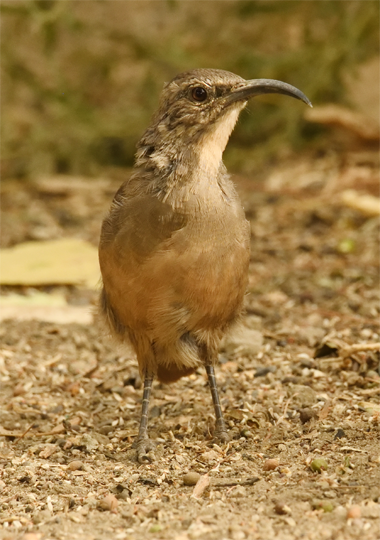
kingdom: Animalia
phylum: Chordata
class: Aves
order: Passeriformes
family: Mimidae
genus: Toxostoma
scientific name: Toxostoma redivivum
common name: California thrasher
